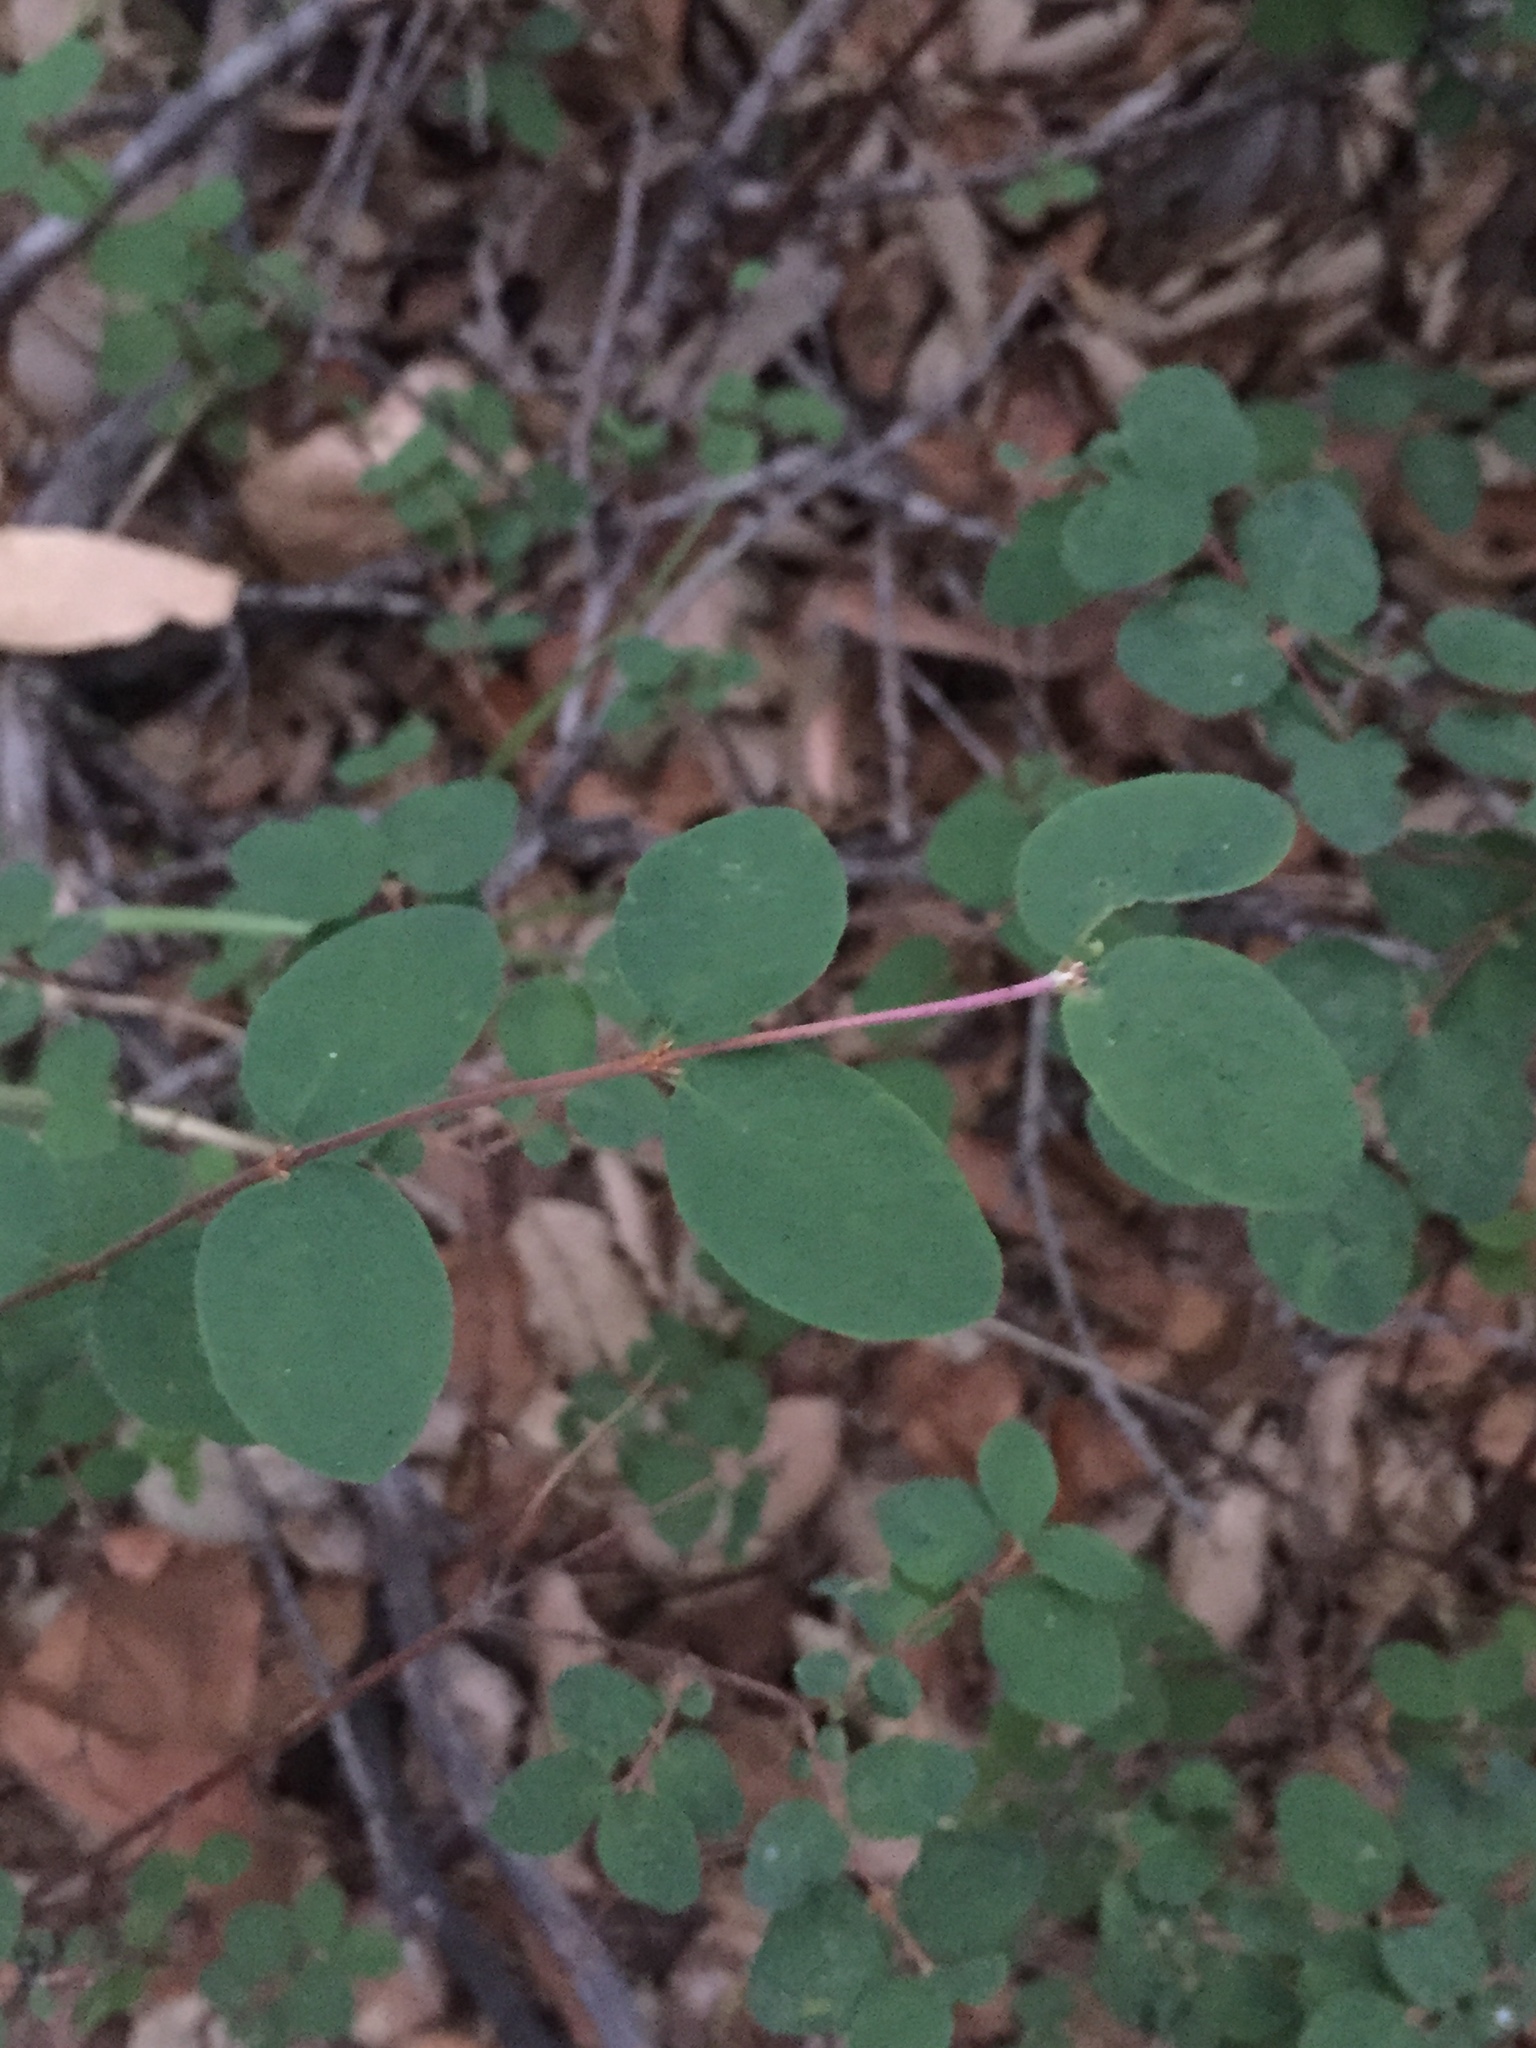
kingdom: Plantae
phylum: Tracheophyta
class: Magnoliopsida
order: Dipsacales
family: Caprifoliaceae
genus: Symphoricarpos
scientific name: Symphoricarpos mollis
